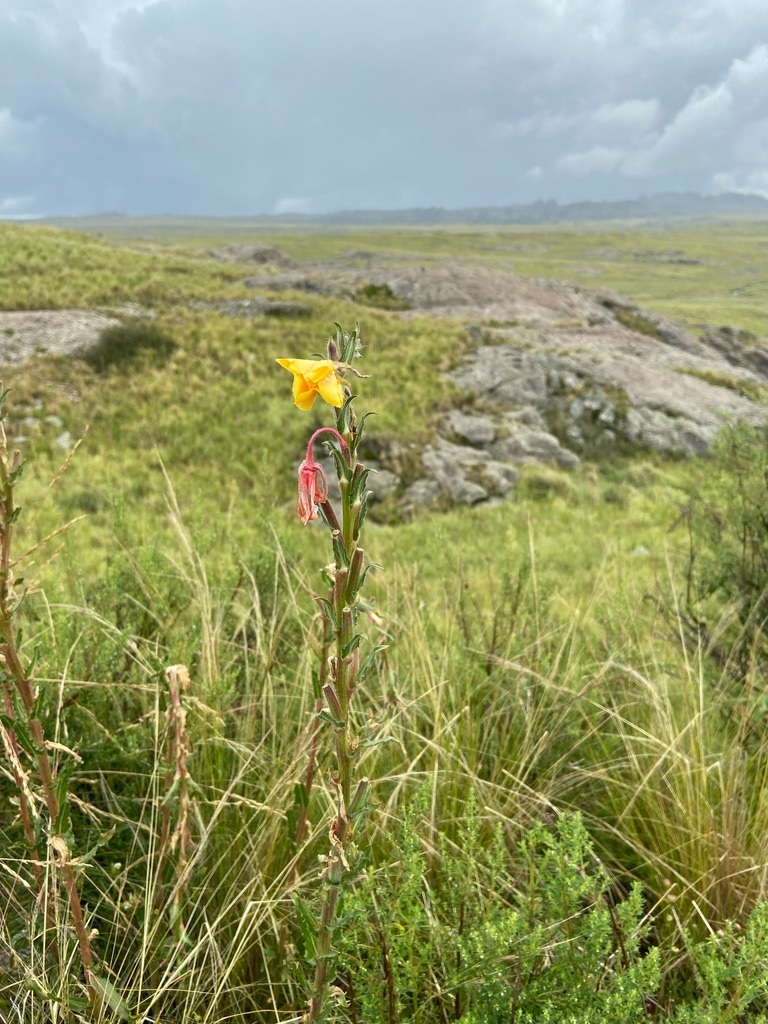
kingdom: Plantae
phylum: Tracheophyta
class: Magnoliopsida
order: Myrtales
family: Onagraceae
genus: Oenothera
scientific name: Oenothera parodiana
